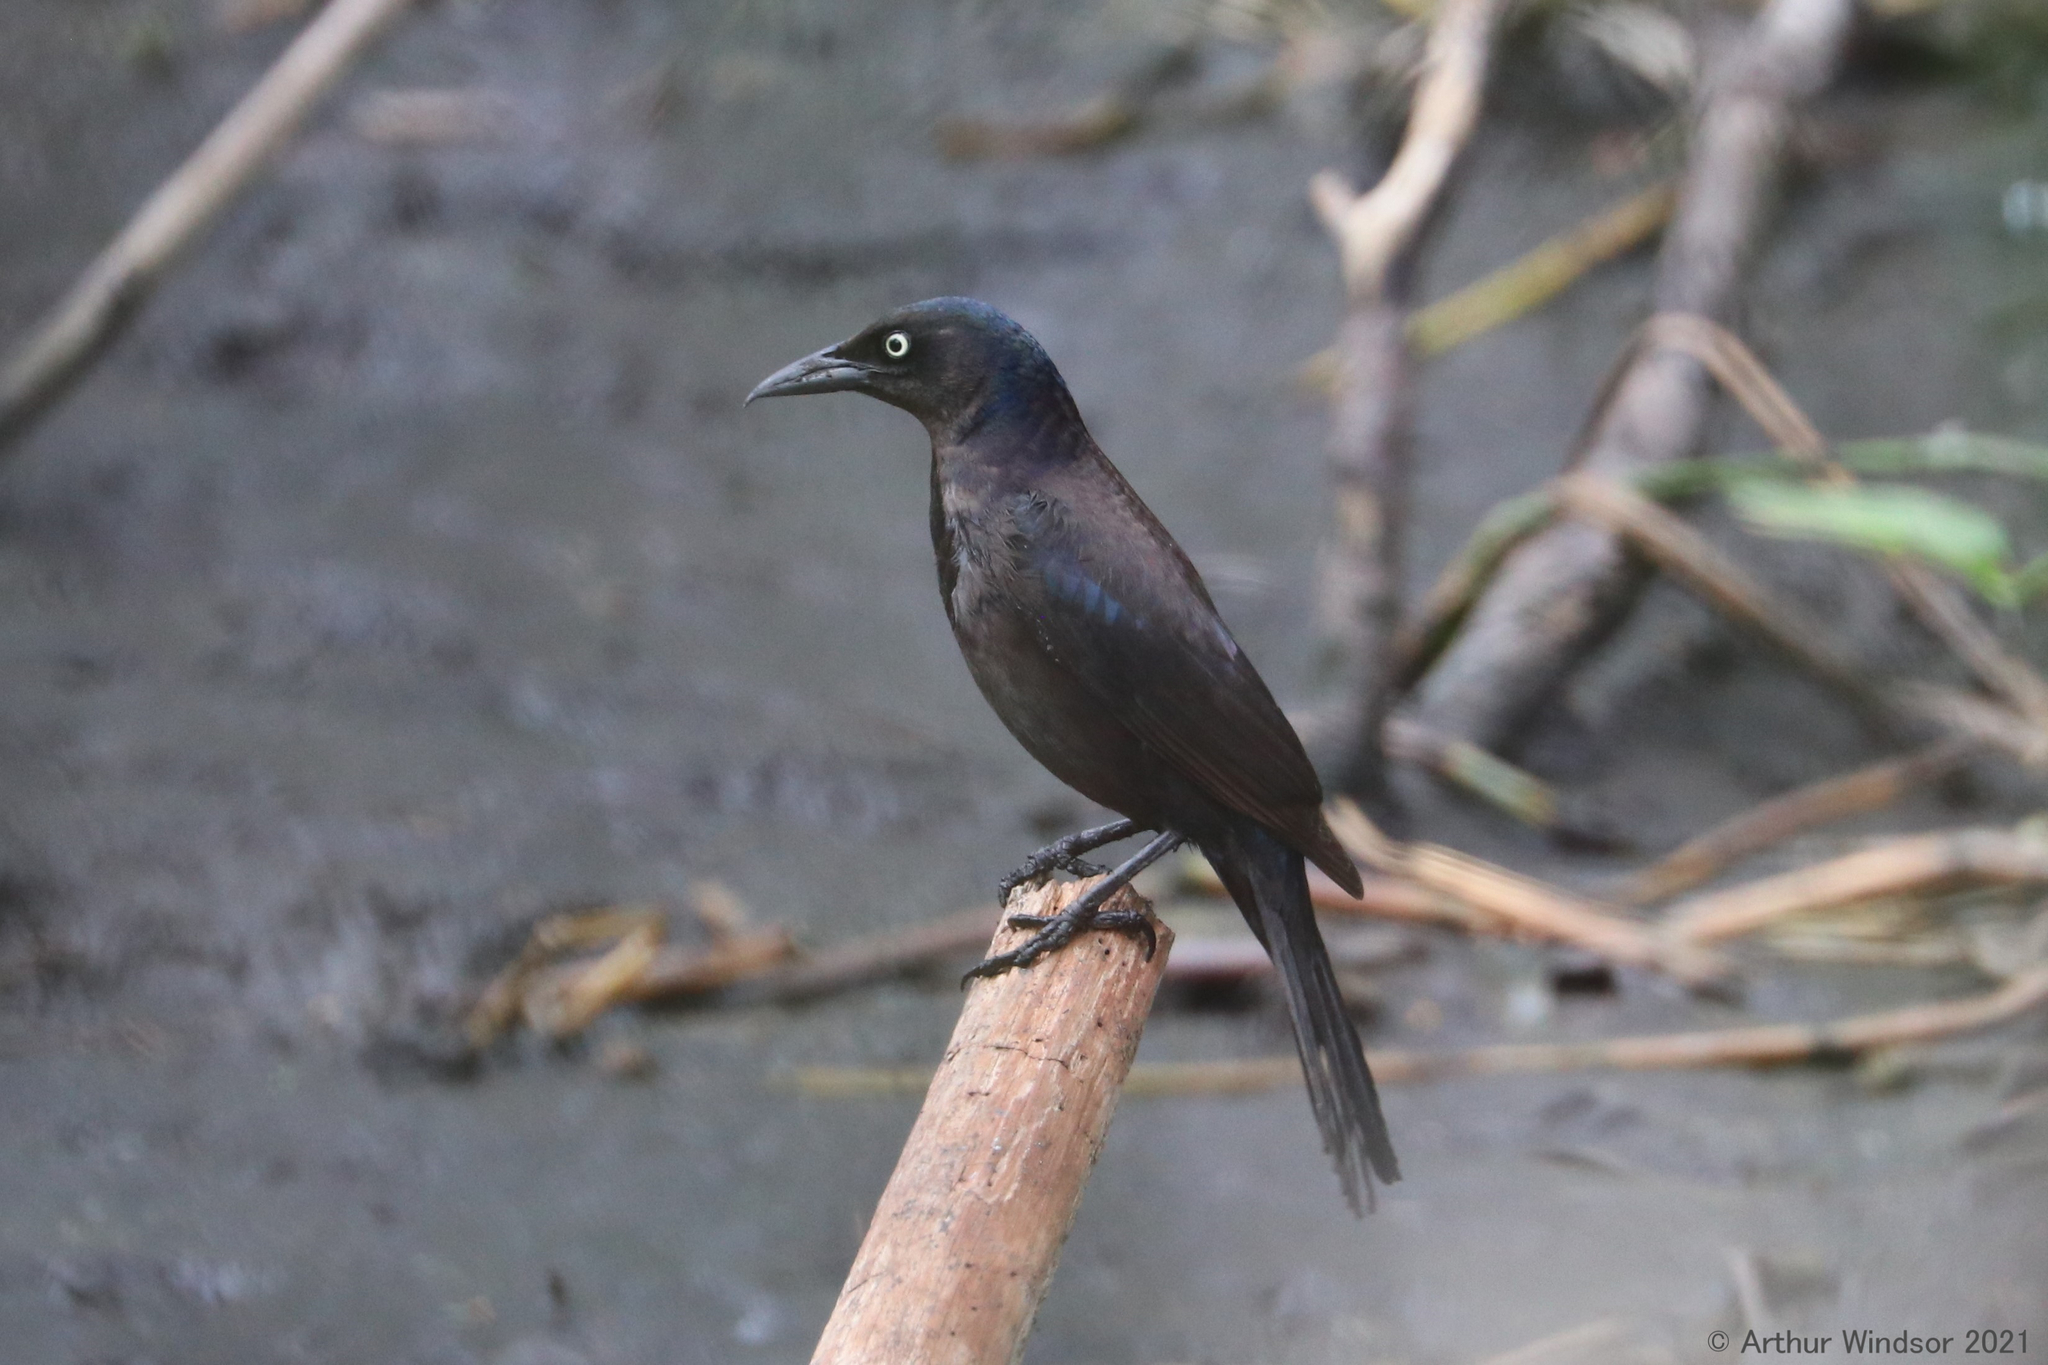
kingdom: Animalia
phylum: Chordata
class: Aves
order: Passeriformes
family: Icteridae
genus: Quiscalus
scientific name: Quiscalus quiscula
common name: Common grackle
